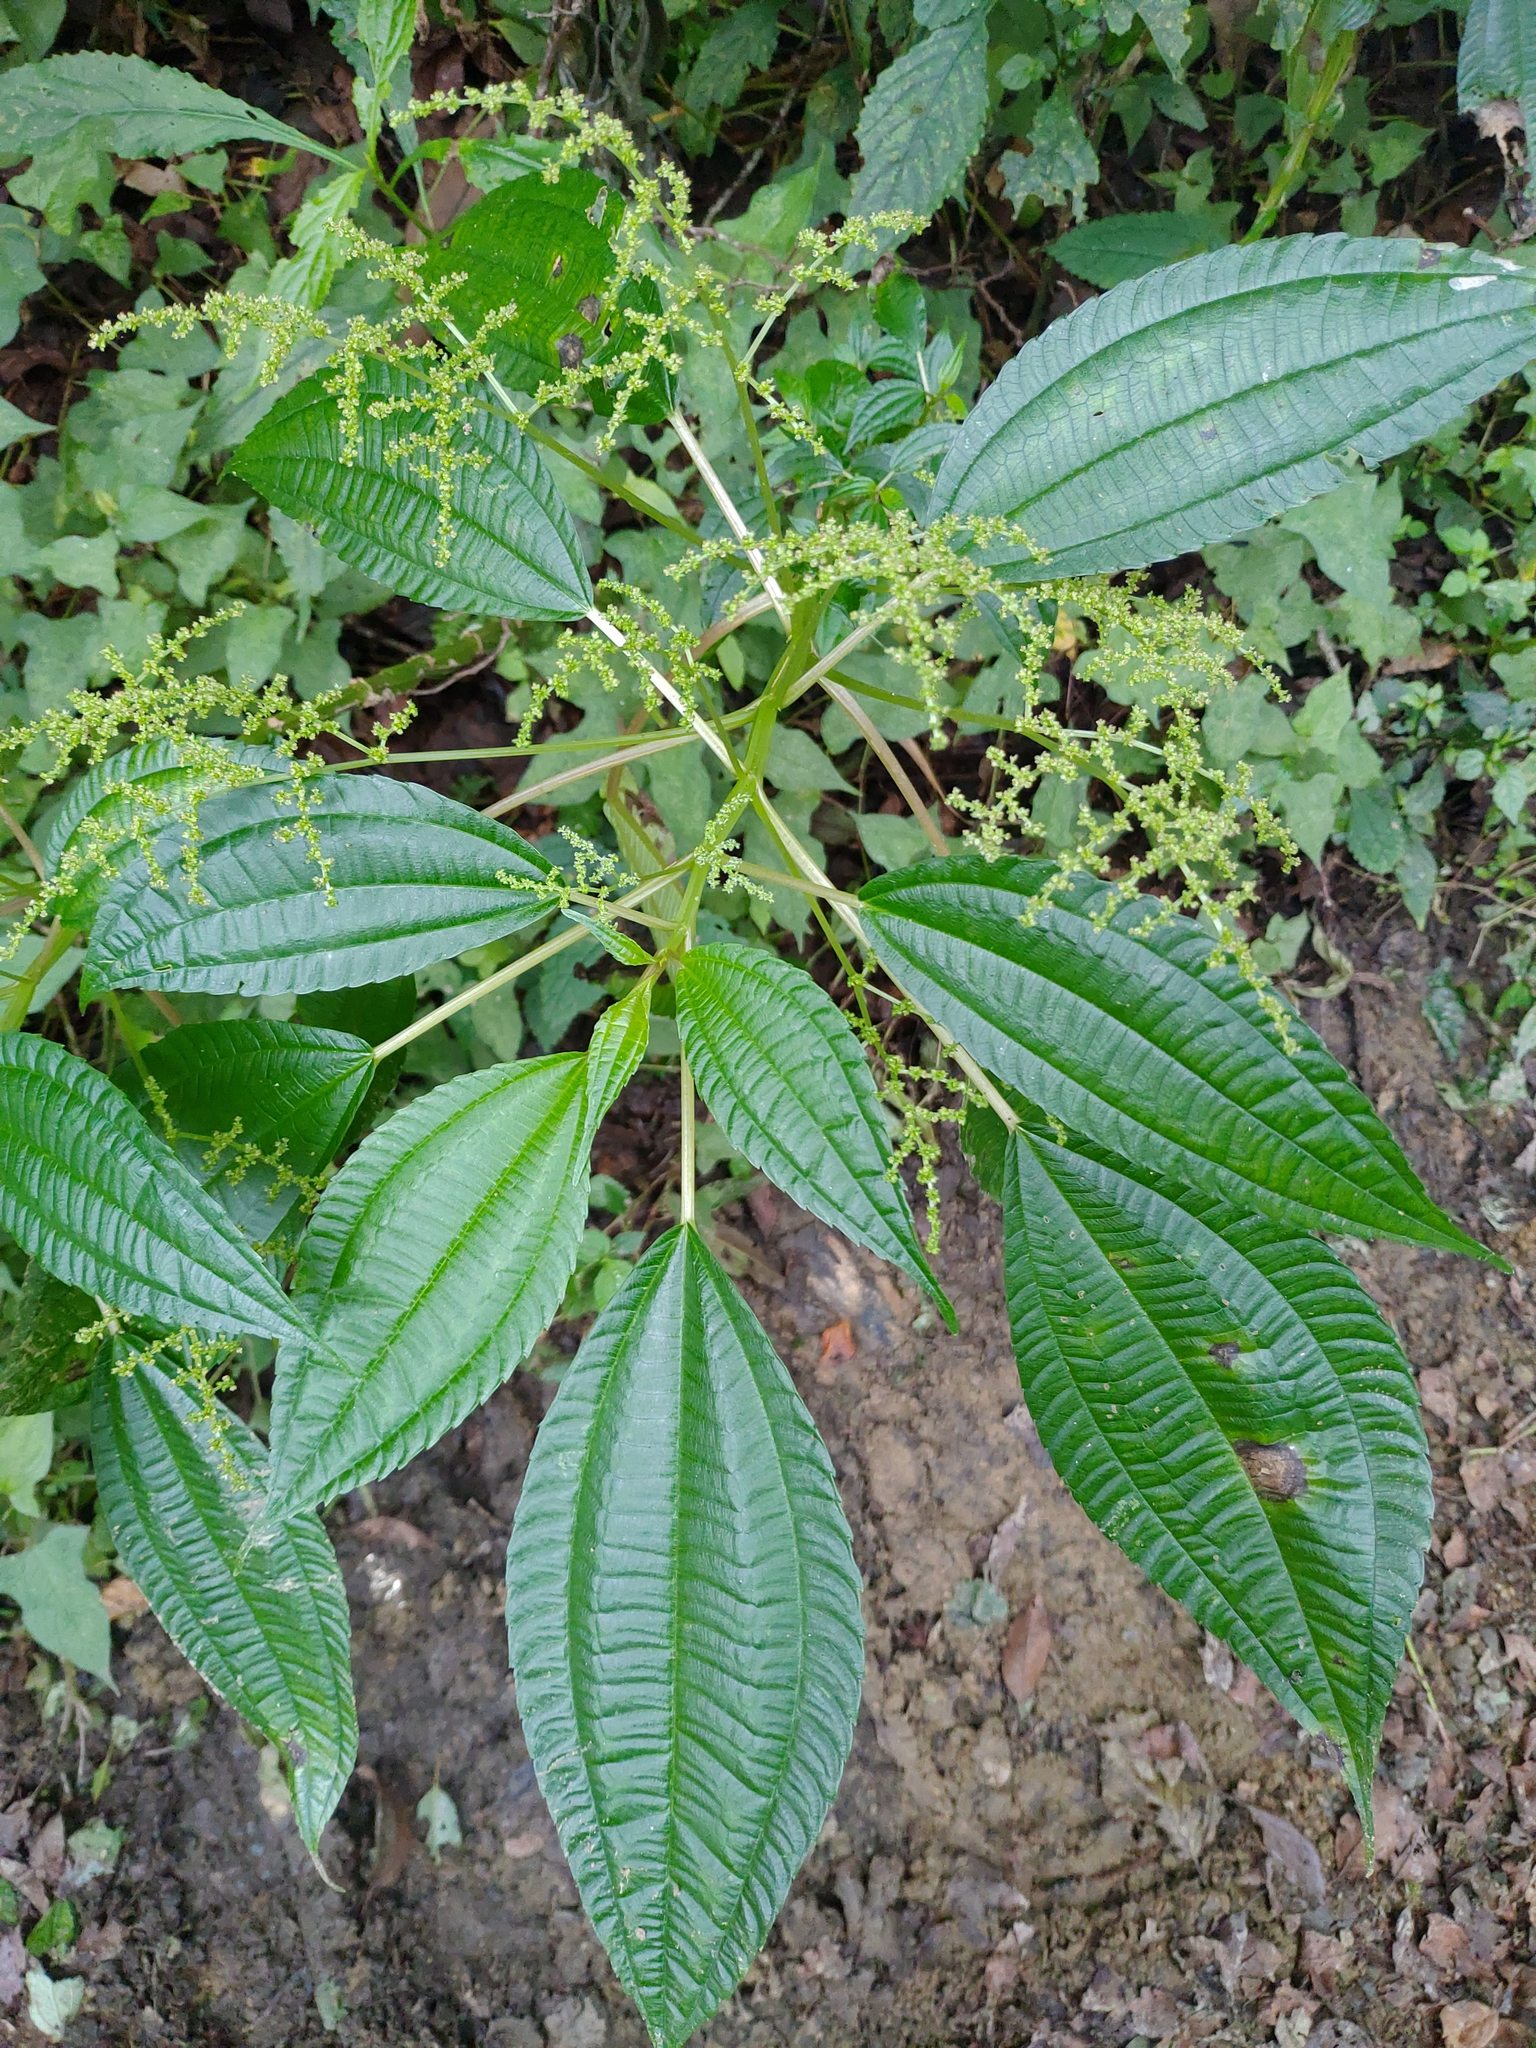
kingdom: Plantae
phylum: Tracheophyta
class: Magnoliopsida
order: Rosales
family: Urticaceae
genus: Pilea
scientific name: Pilea melastomoides
